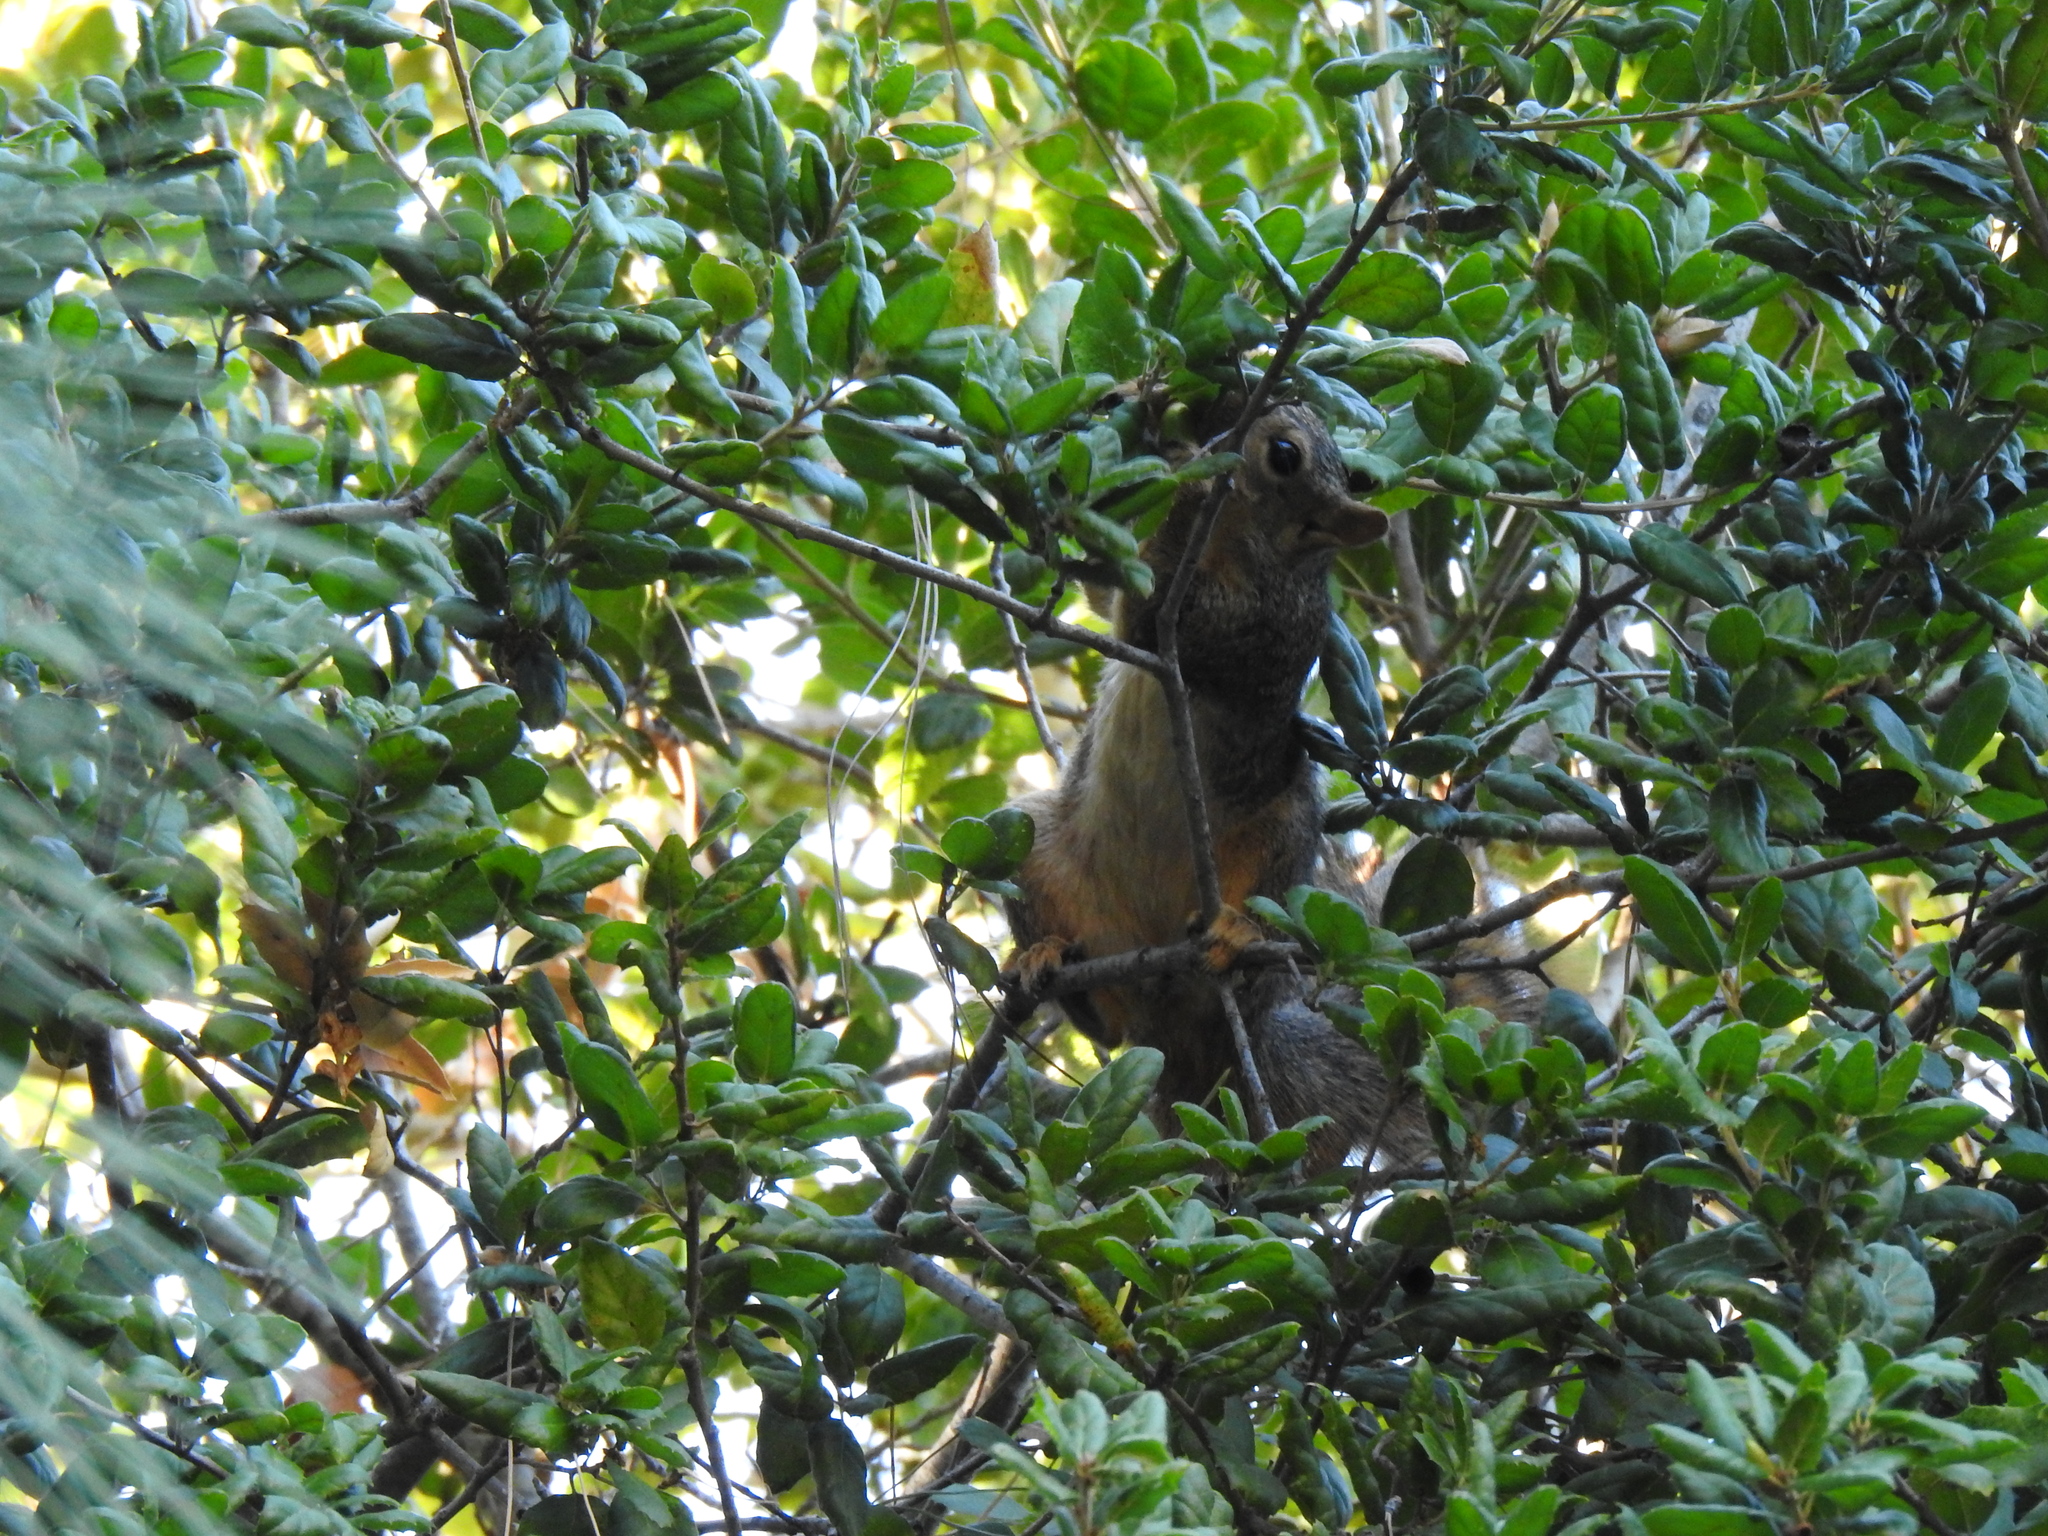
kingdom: Animalia
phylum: Chordata
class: Mammalia
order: Rodentia
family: Sciuridae
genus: Sciurus
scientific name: Sciurus niger
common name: Fox squirrel
